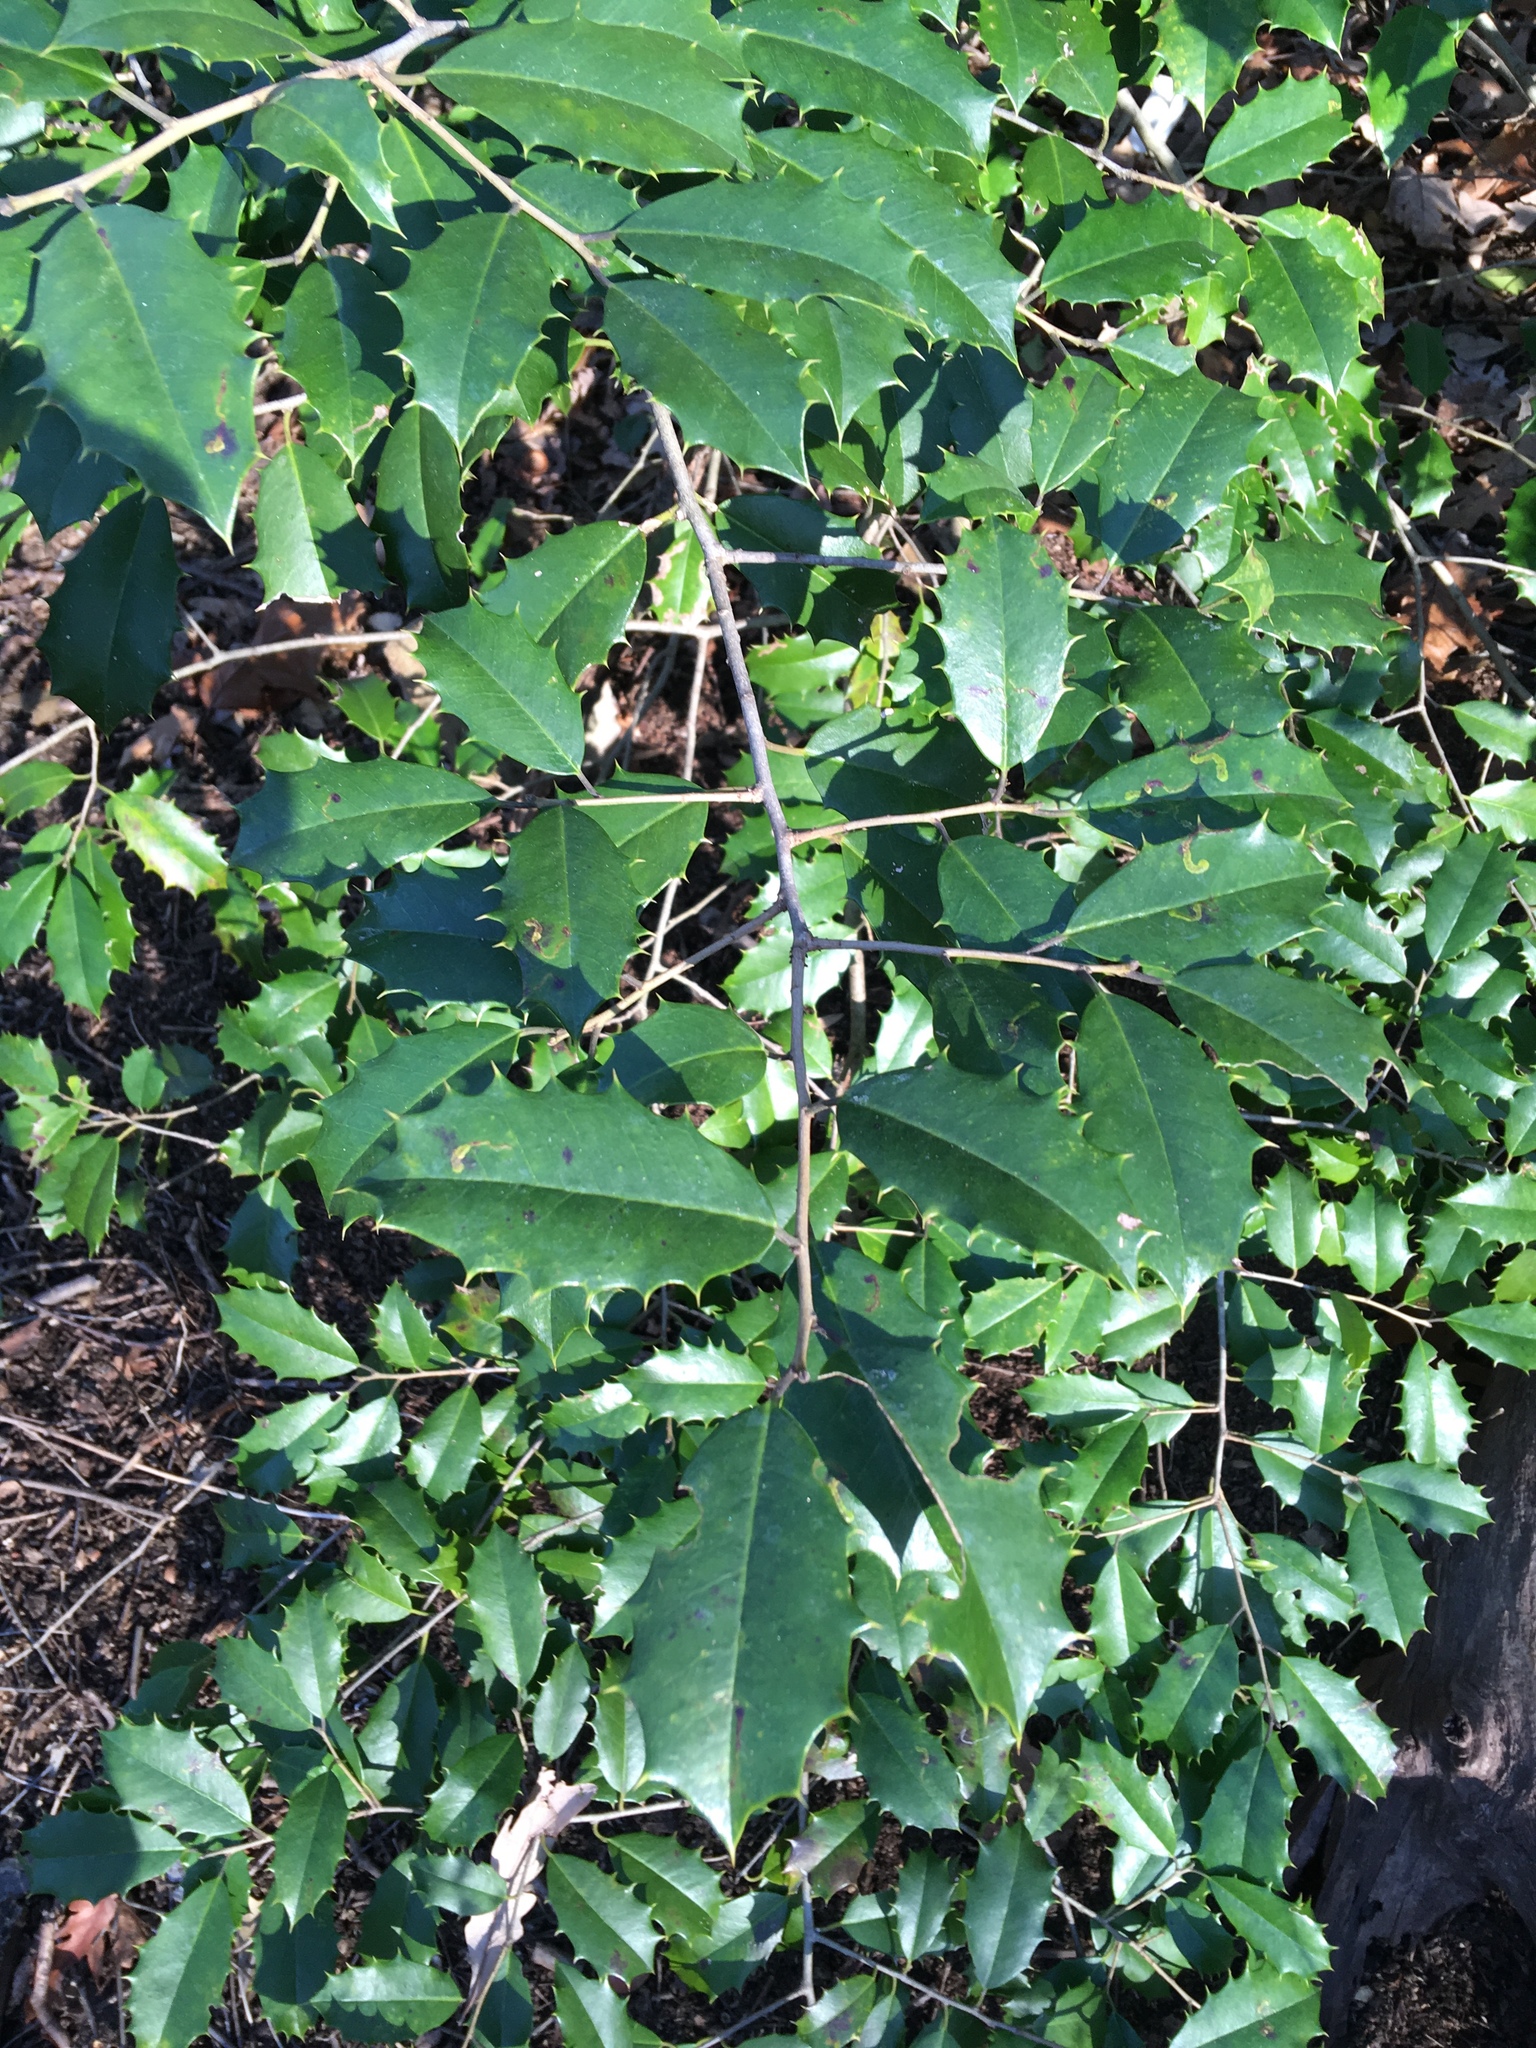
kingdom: Plantae
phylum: Tracheophyta
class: Magnoliopsida
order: Aquifoliales
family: Aquifoliaceae
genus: Ilex
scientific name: Ilex opaca
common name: American holly
